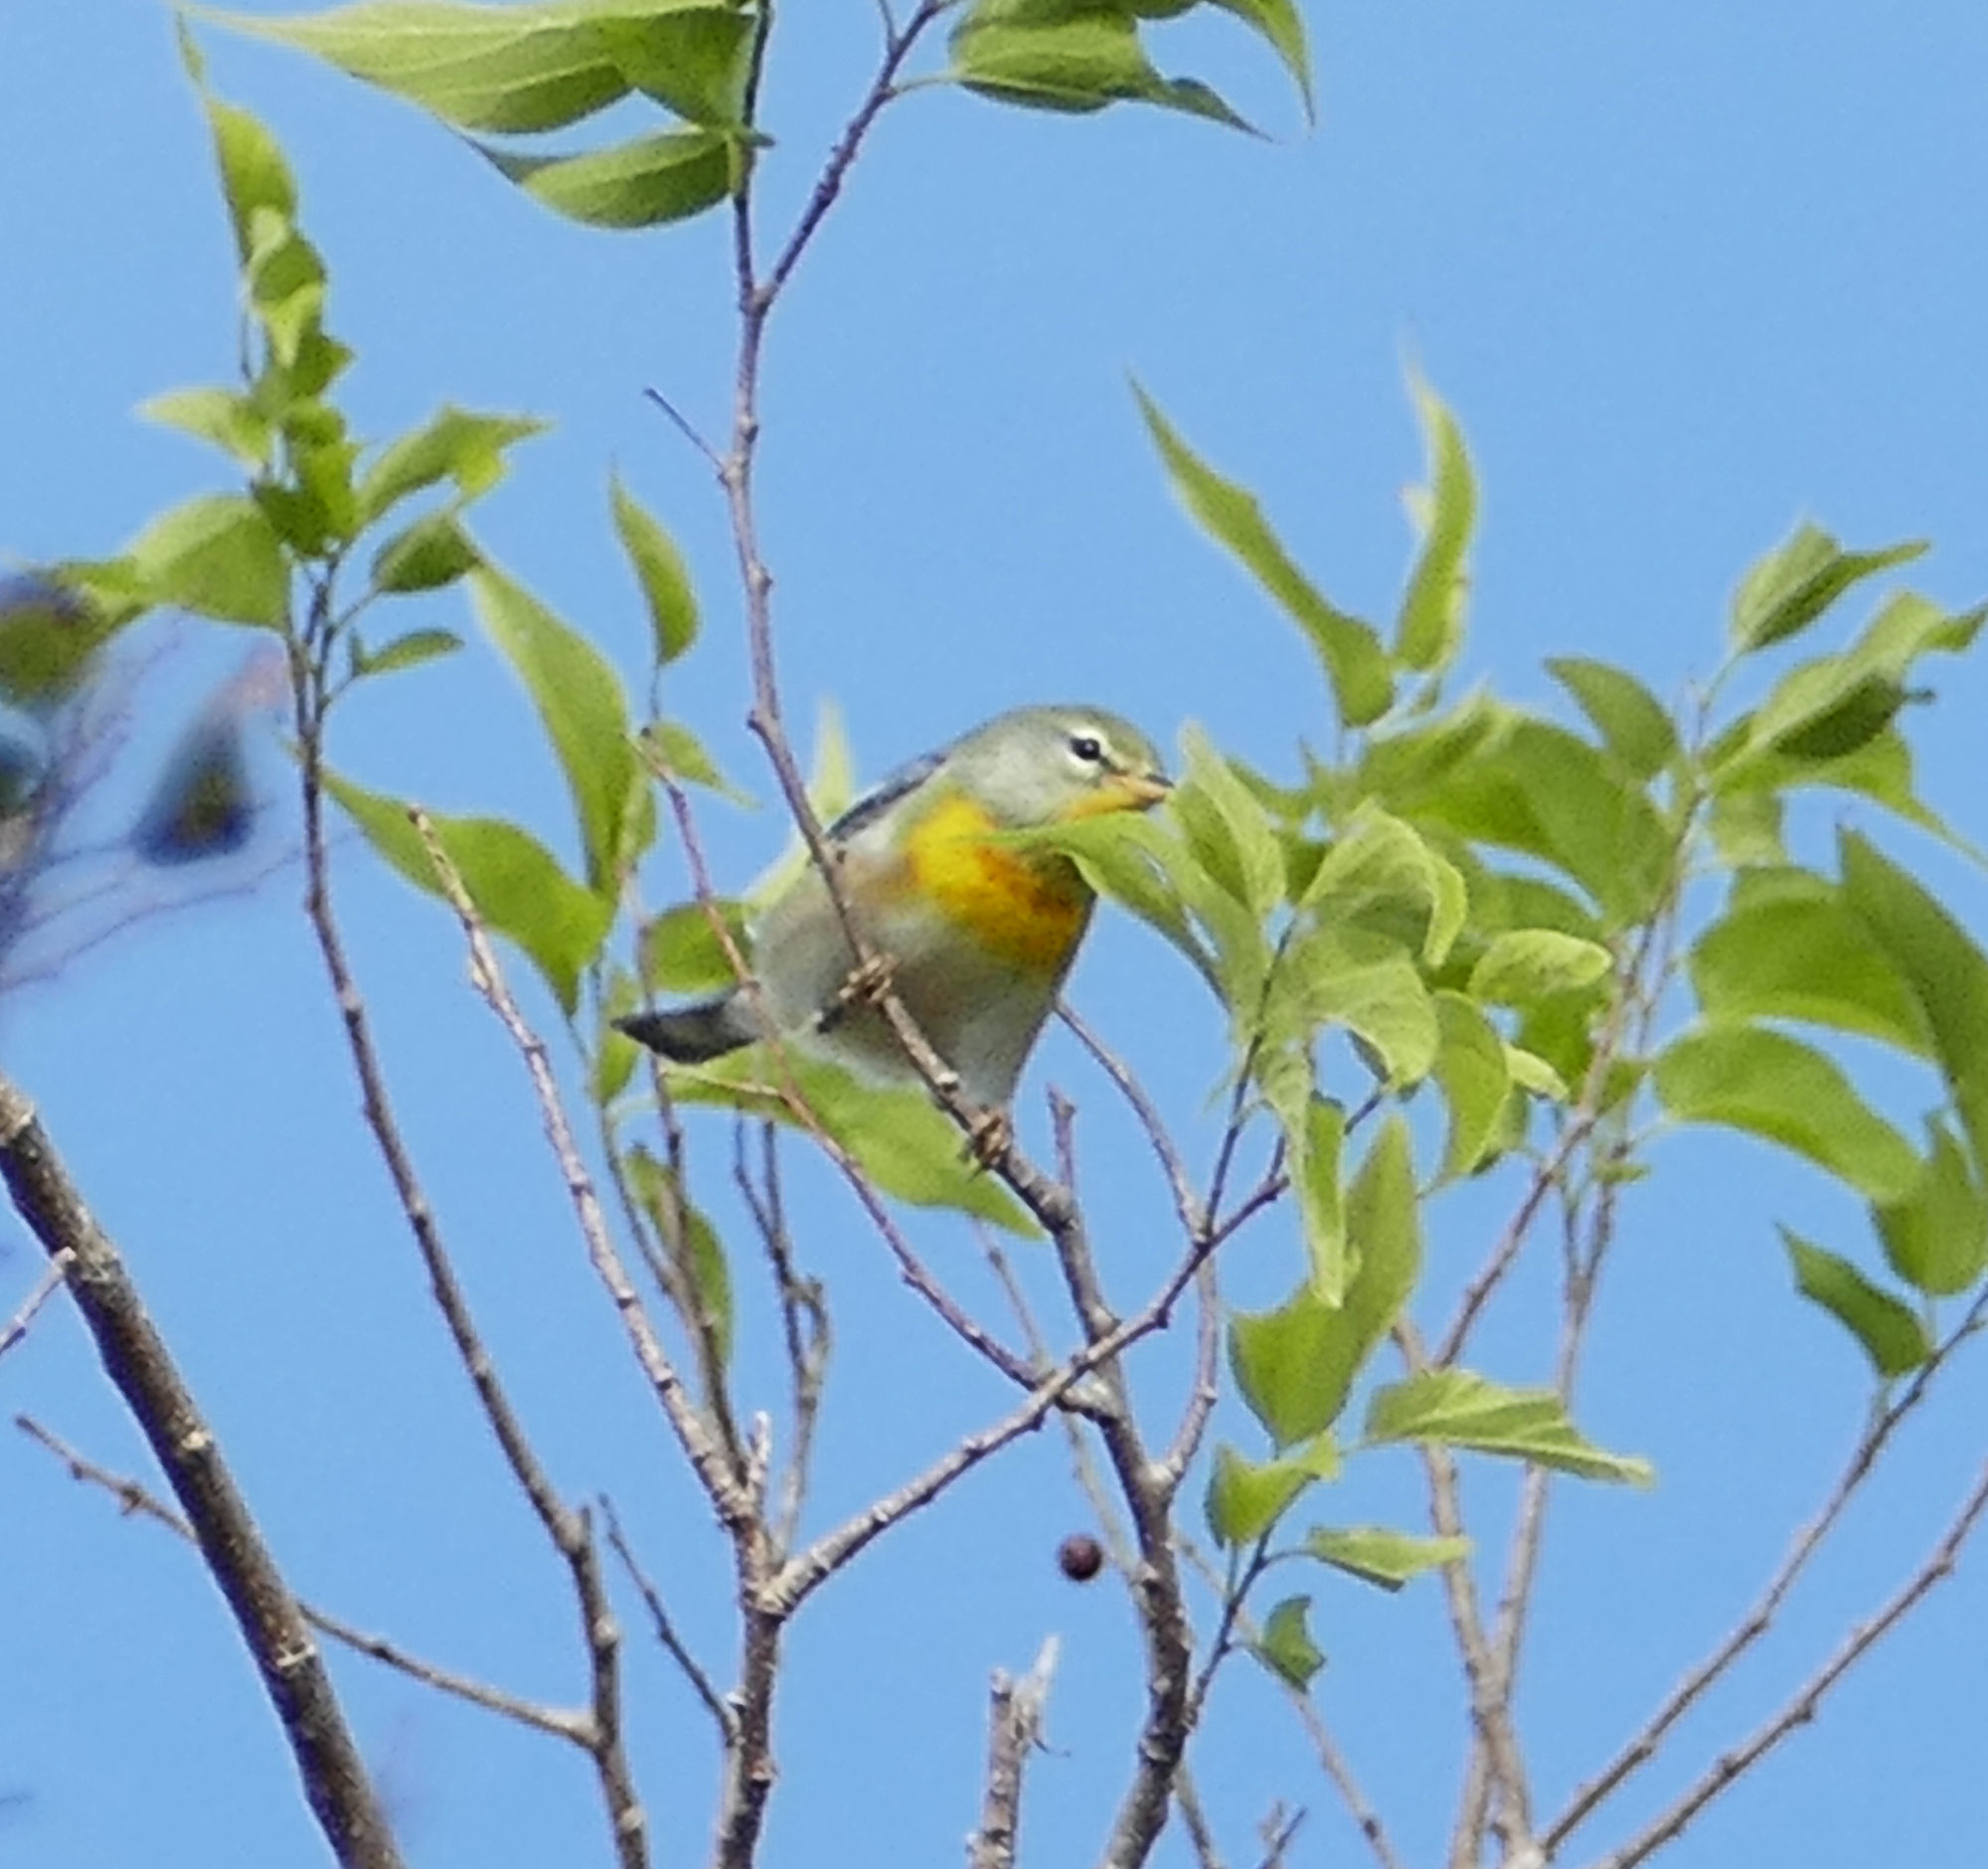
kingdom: Animalia
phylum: Chordata
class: Aves
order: Passeriformes
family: Parulidae
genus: Setophaga
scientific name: Setophaga americana
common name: Northern parula
